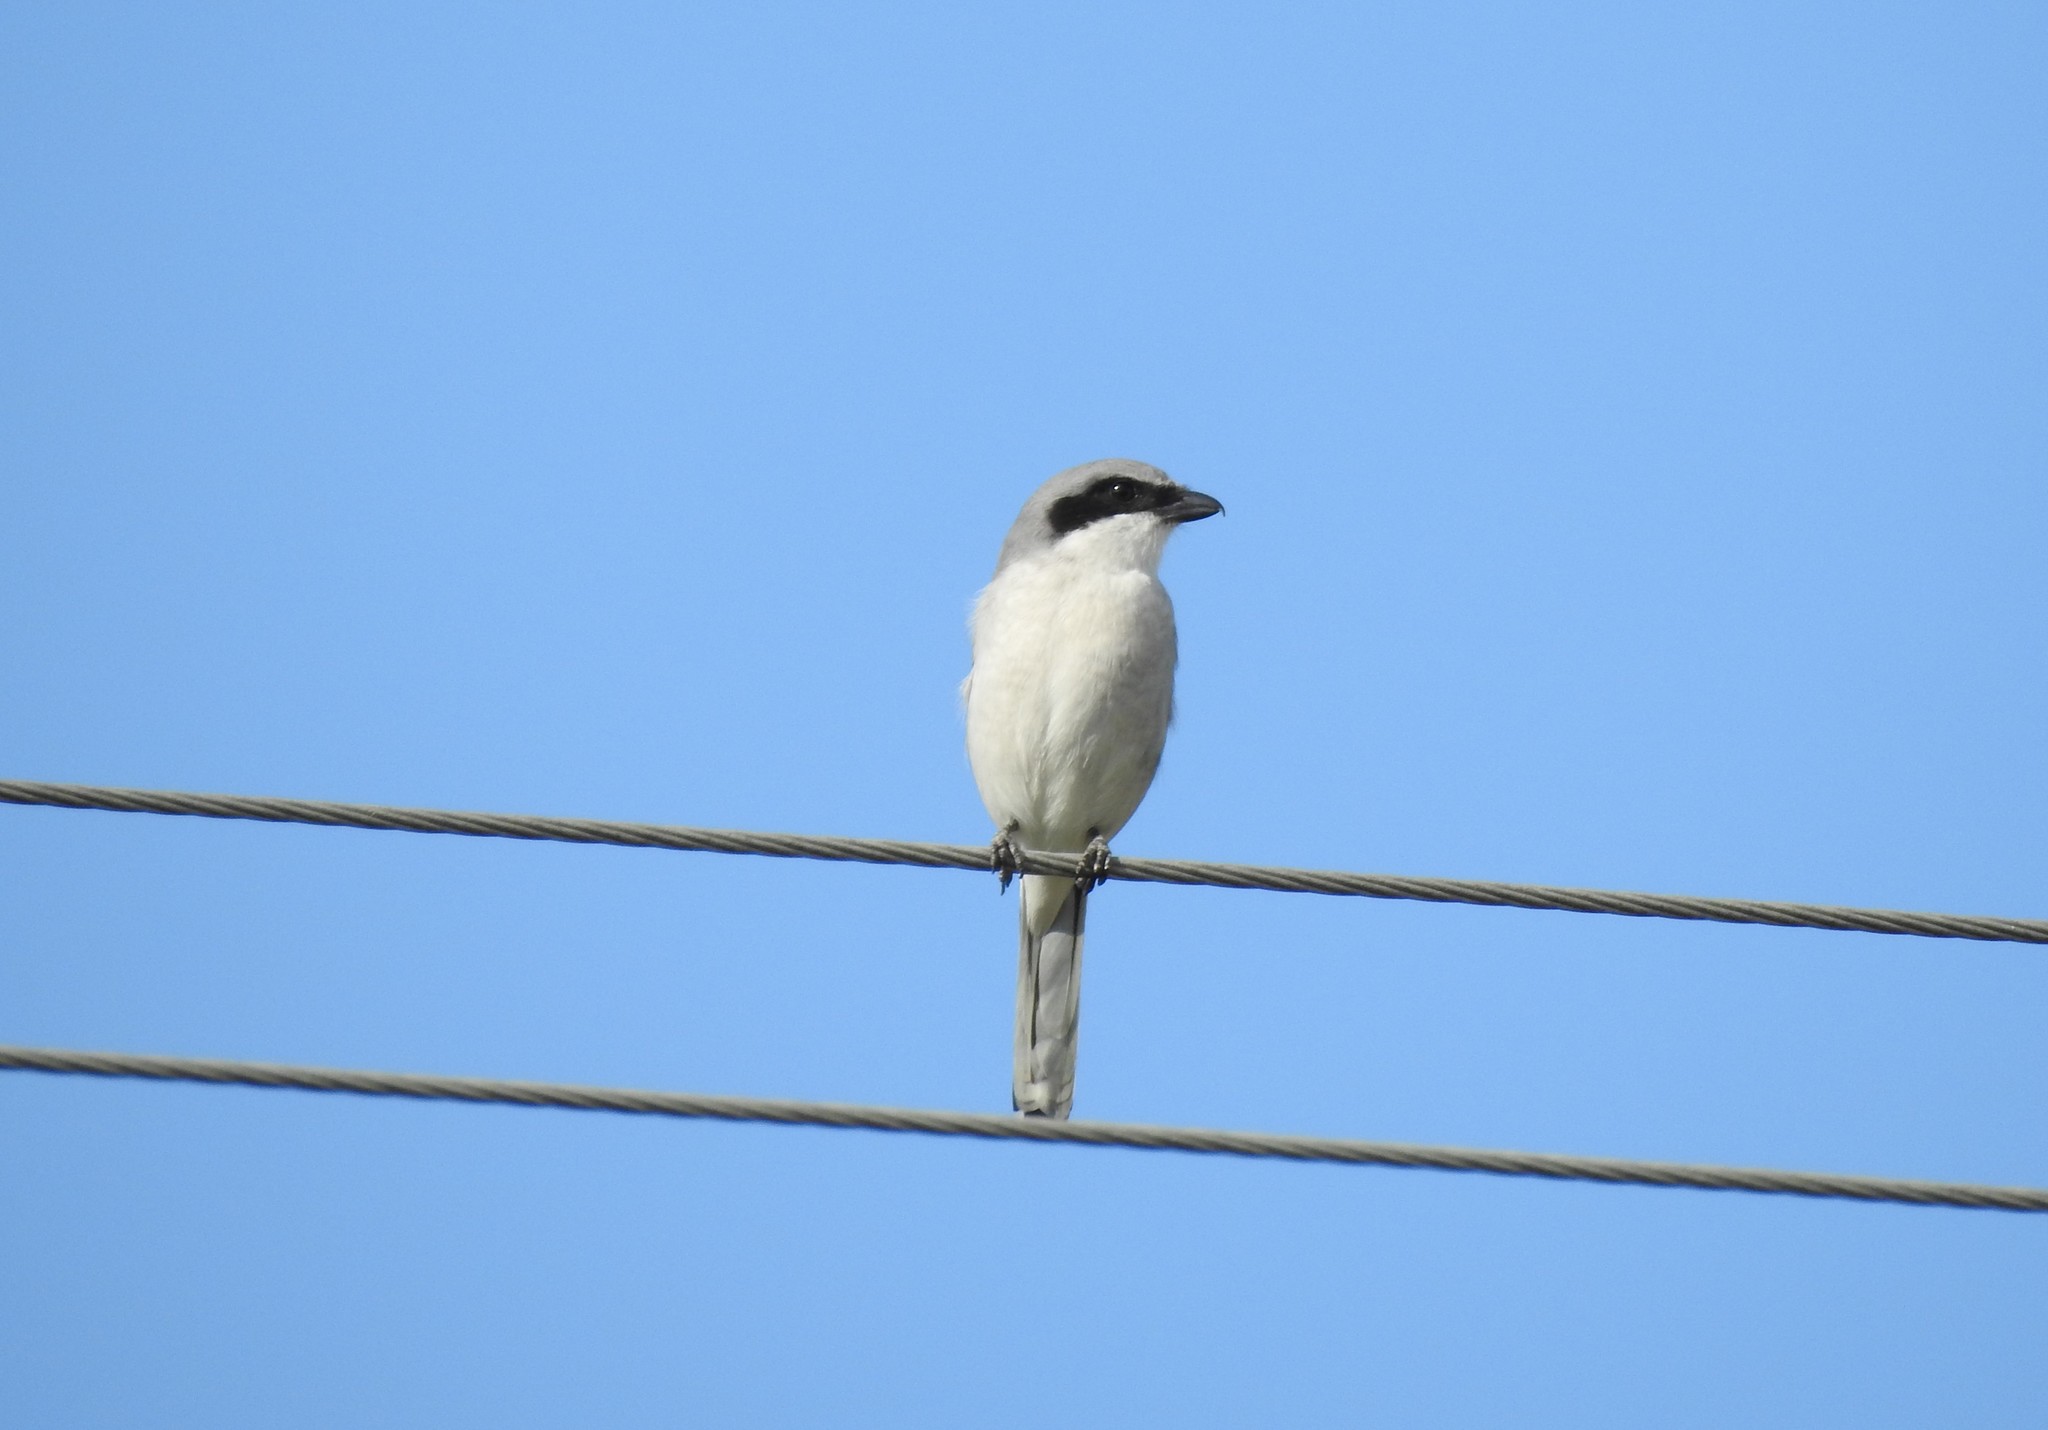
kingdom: Animalia
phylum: Chordata
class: Aves
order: Passeriformes
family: Laniidae
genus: Lanius
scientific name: Lanius ludovicianus
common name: Loggerhead shrike
